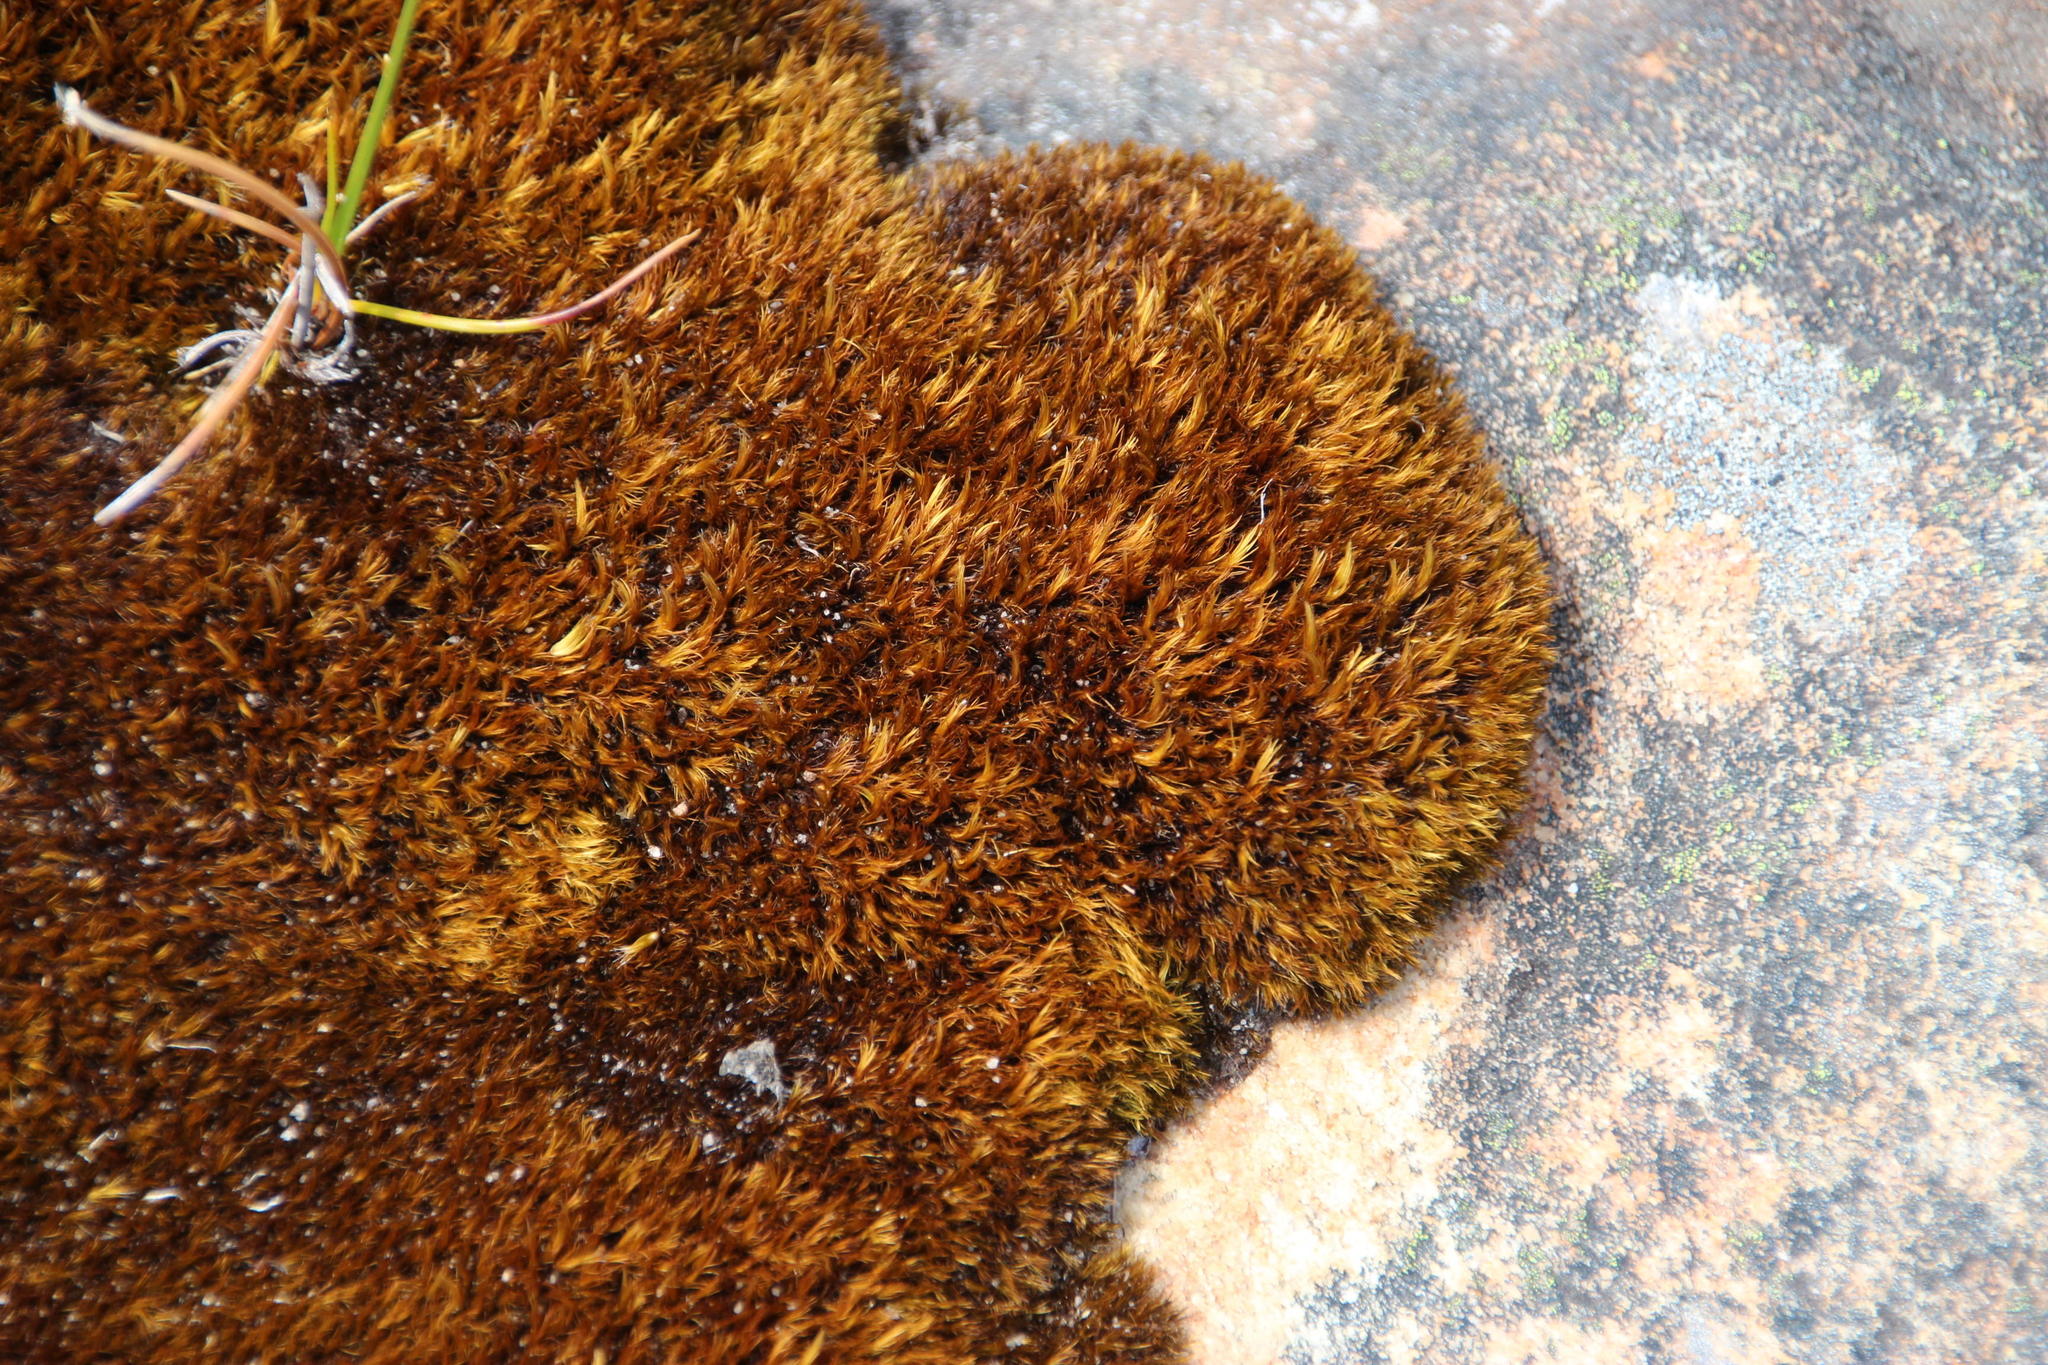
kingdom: Plantae
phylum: Bryophyta
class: Bryopsida
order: Dicranales
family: Leucobryaceae
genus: Campylopus
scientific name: Campylopus bicolor
